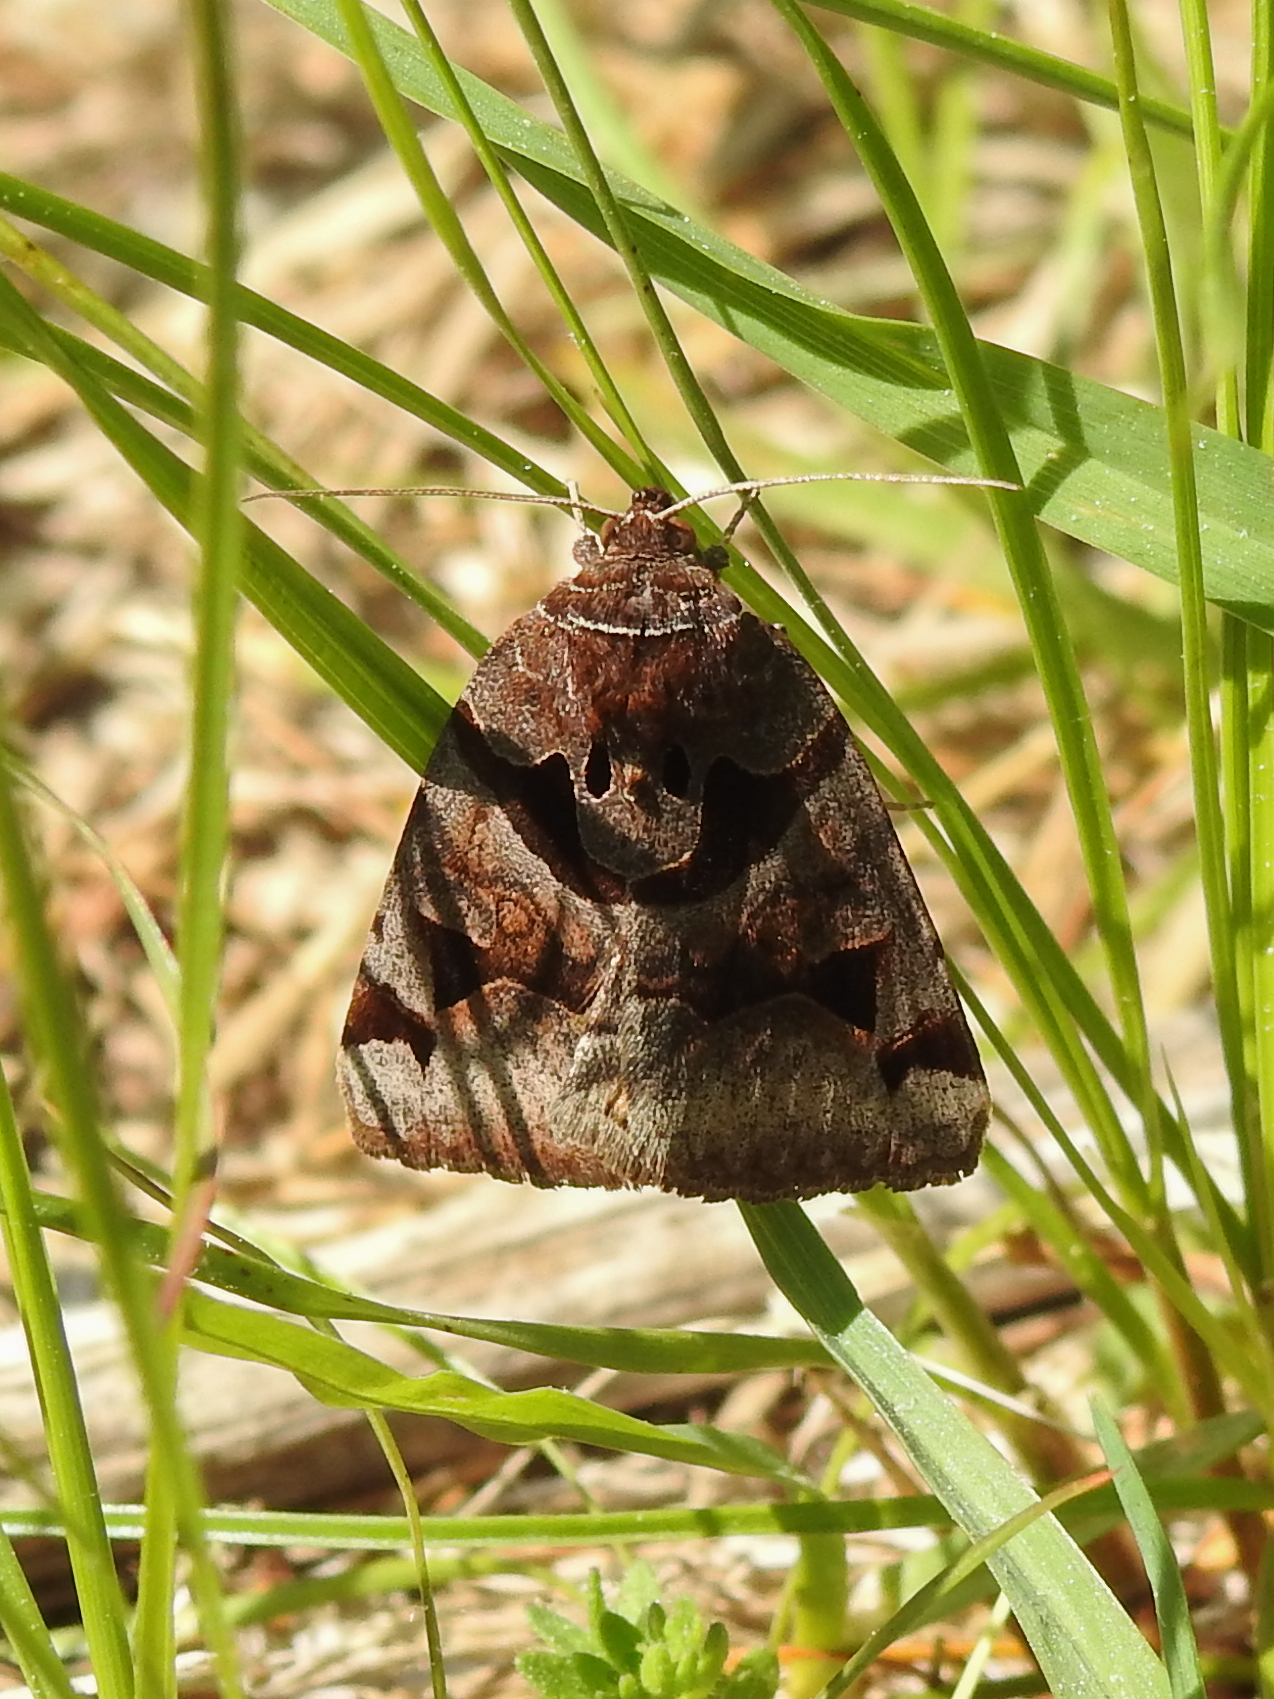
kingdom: Animalia
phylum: Arthropoda
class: Insecta
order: Lepidoptera
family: Erebidae
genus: Euclidia
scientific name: Euclidia cuspidea
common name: Toothed somberwing
